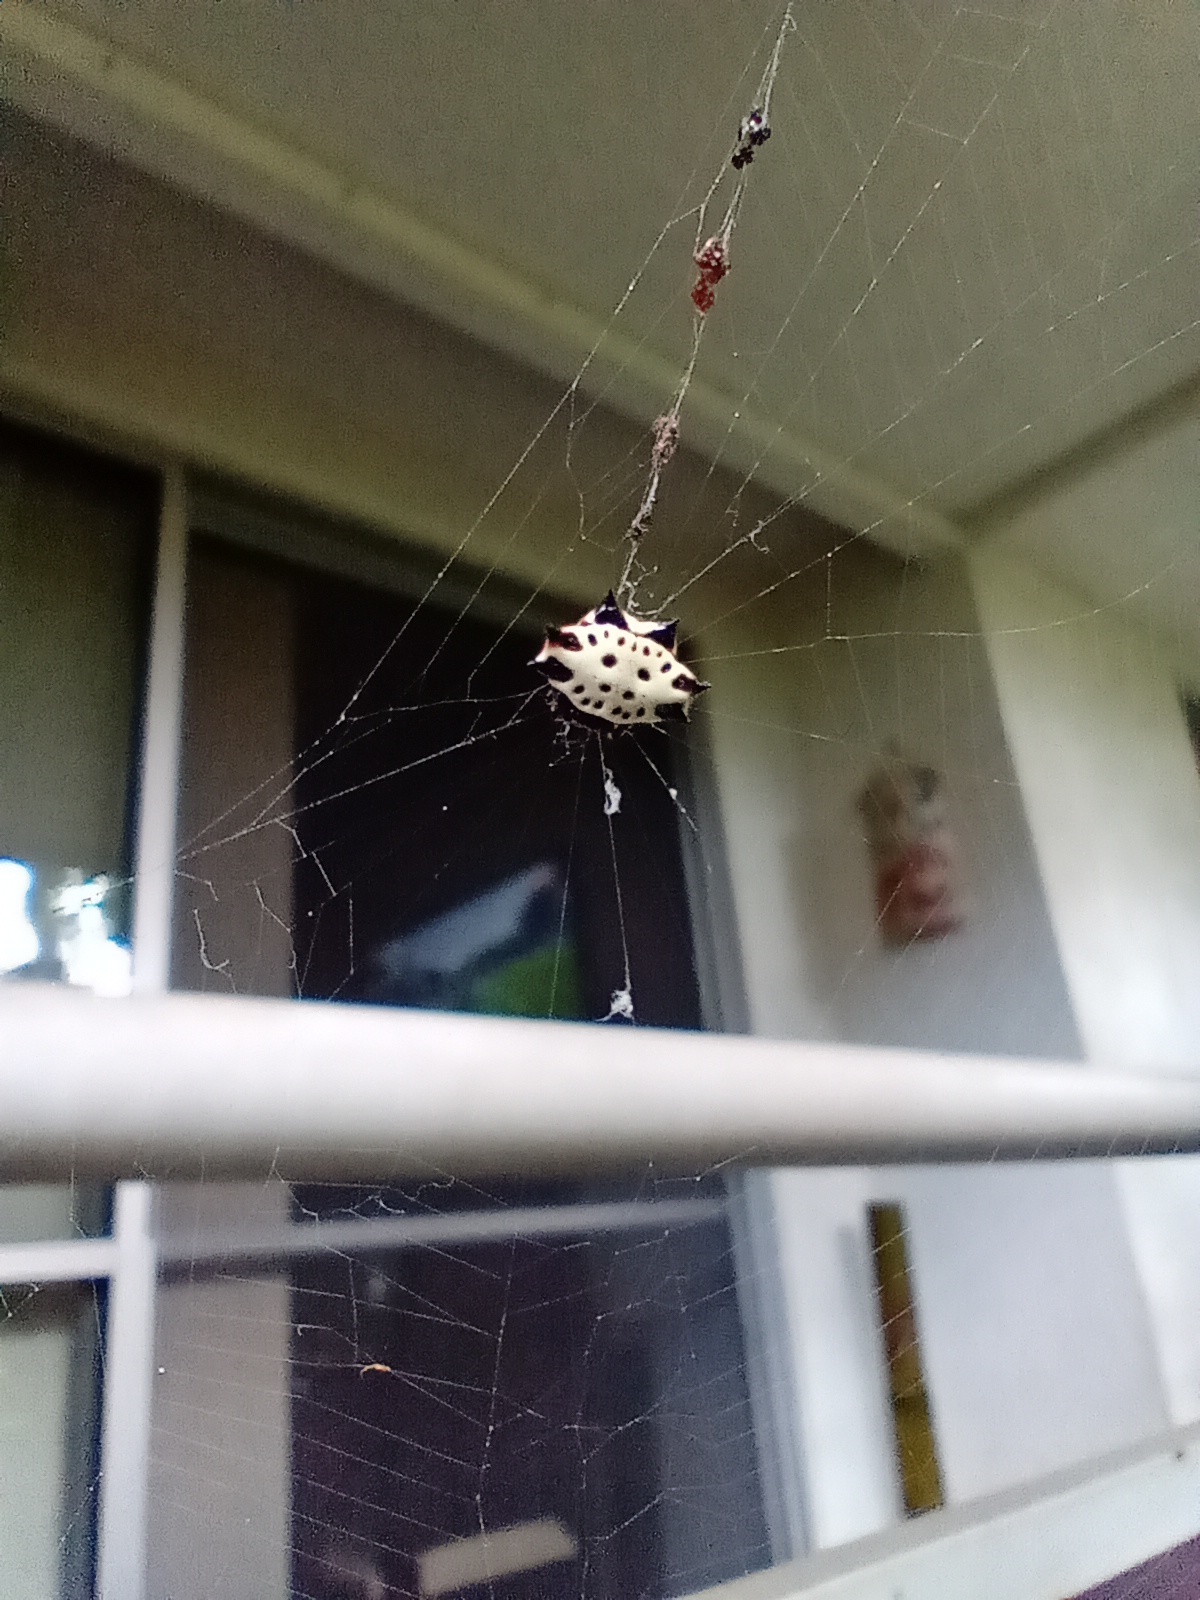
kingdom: Animalia
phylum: Arthropoda
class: Arachnida
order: Araneae
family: Araneidae
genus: Gasteracantha
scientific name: Gasteracantha cancriformis
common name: Orb weavers
